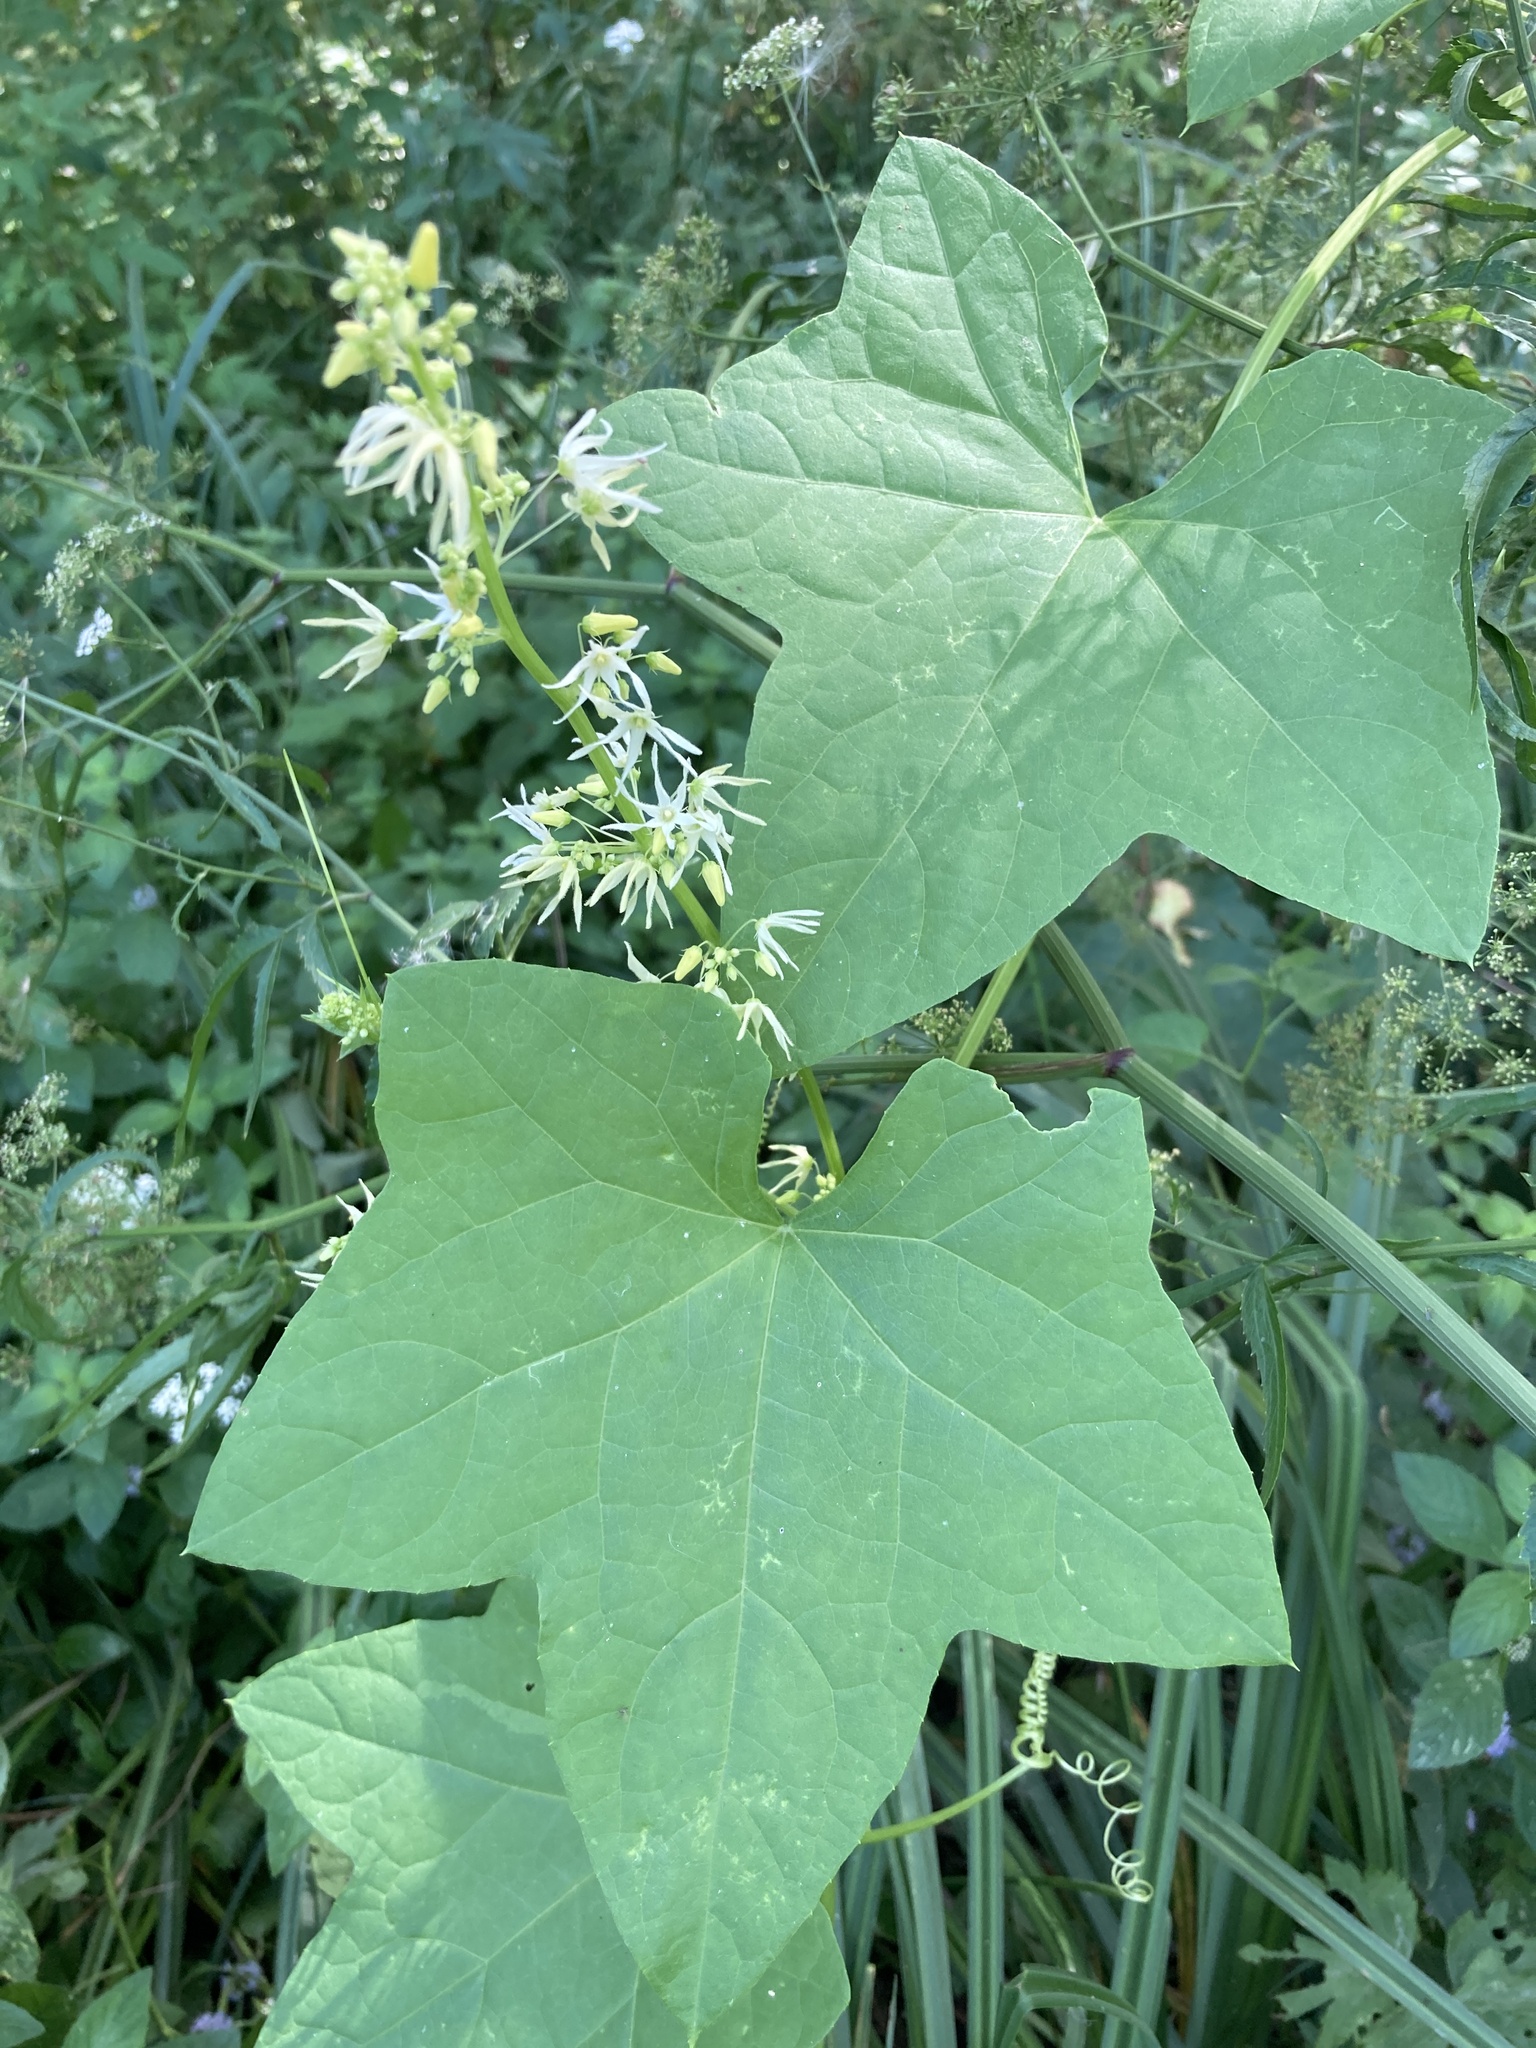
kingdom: Plantae
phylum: Tracheophyta
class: Magnoliopsida
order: Cucurbitales
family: Cucurbitaceae
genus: Echinocystis
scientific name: Echinocystis lobata
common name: Wild cucumber
